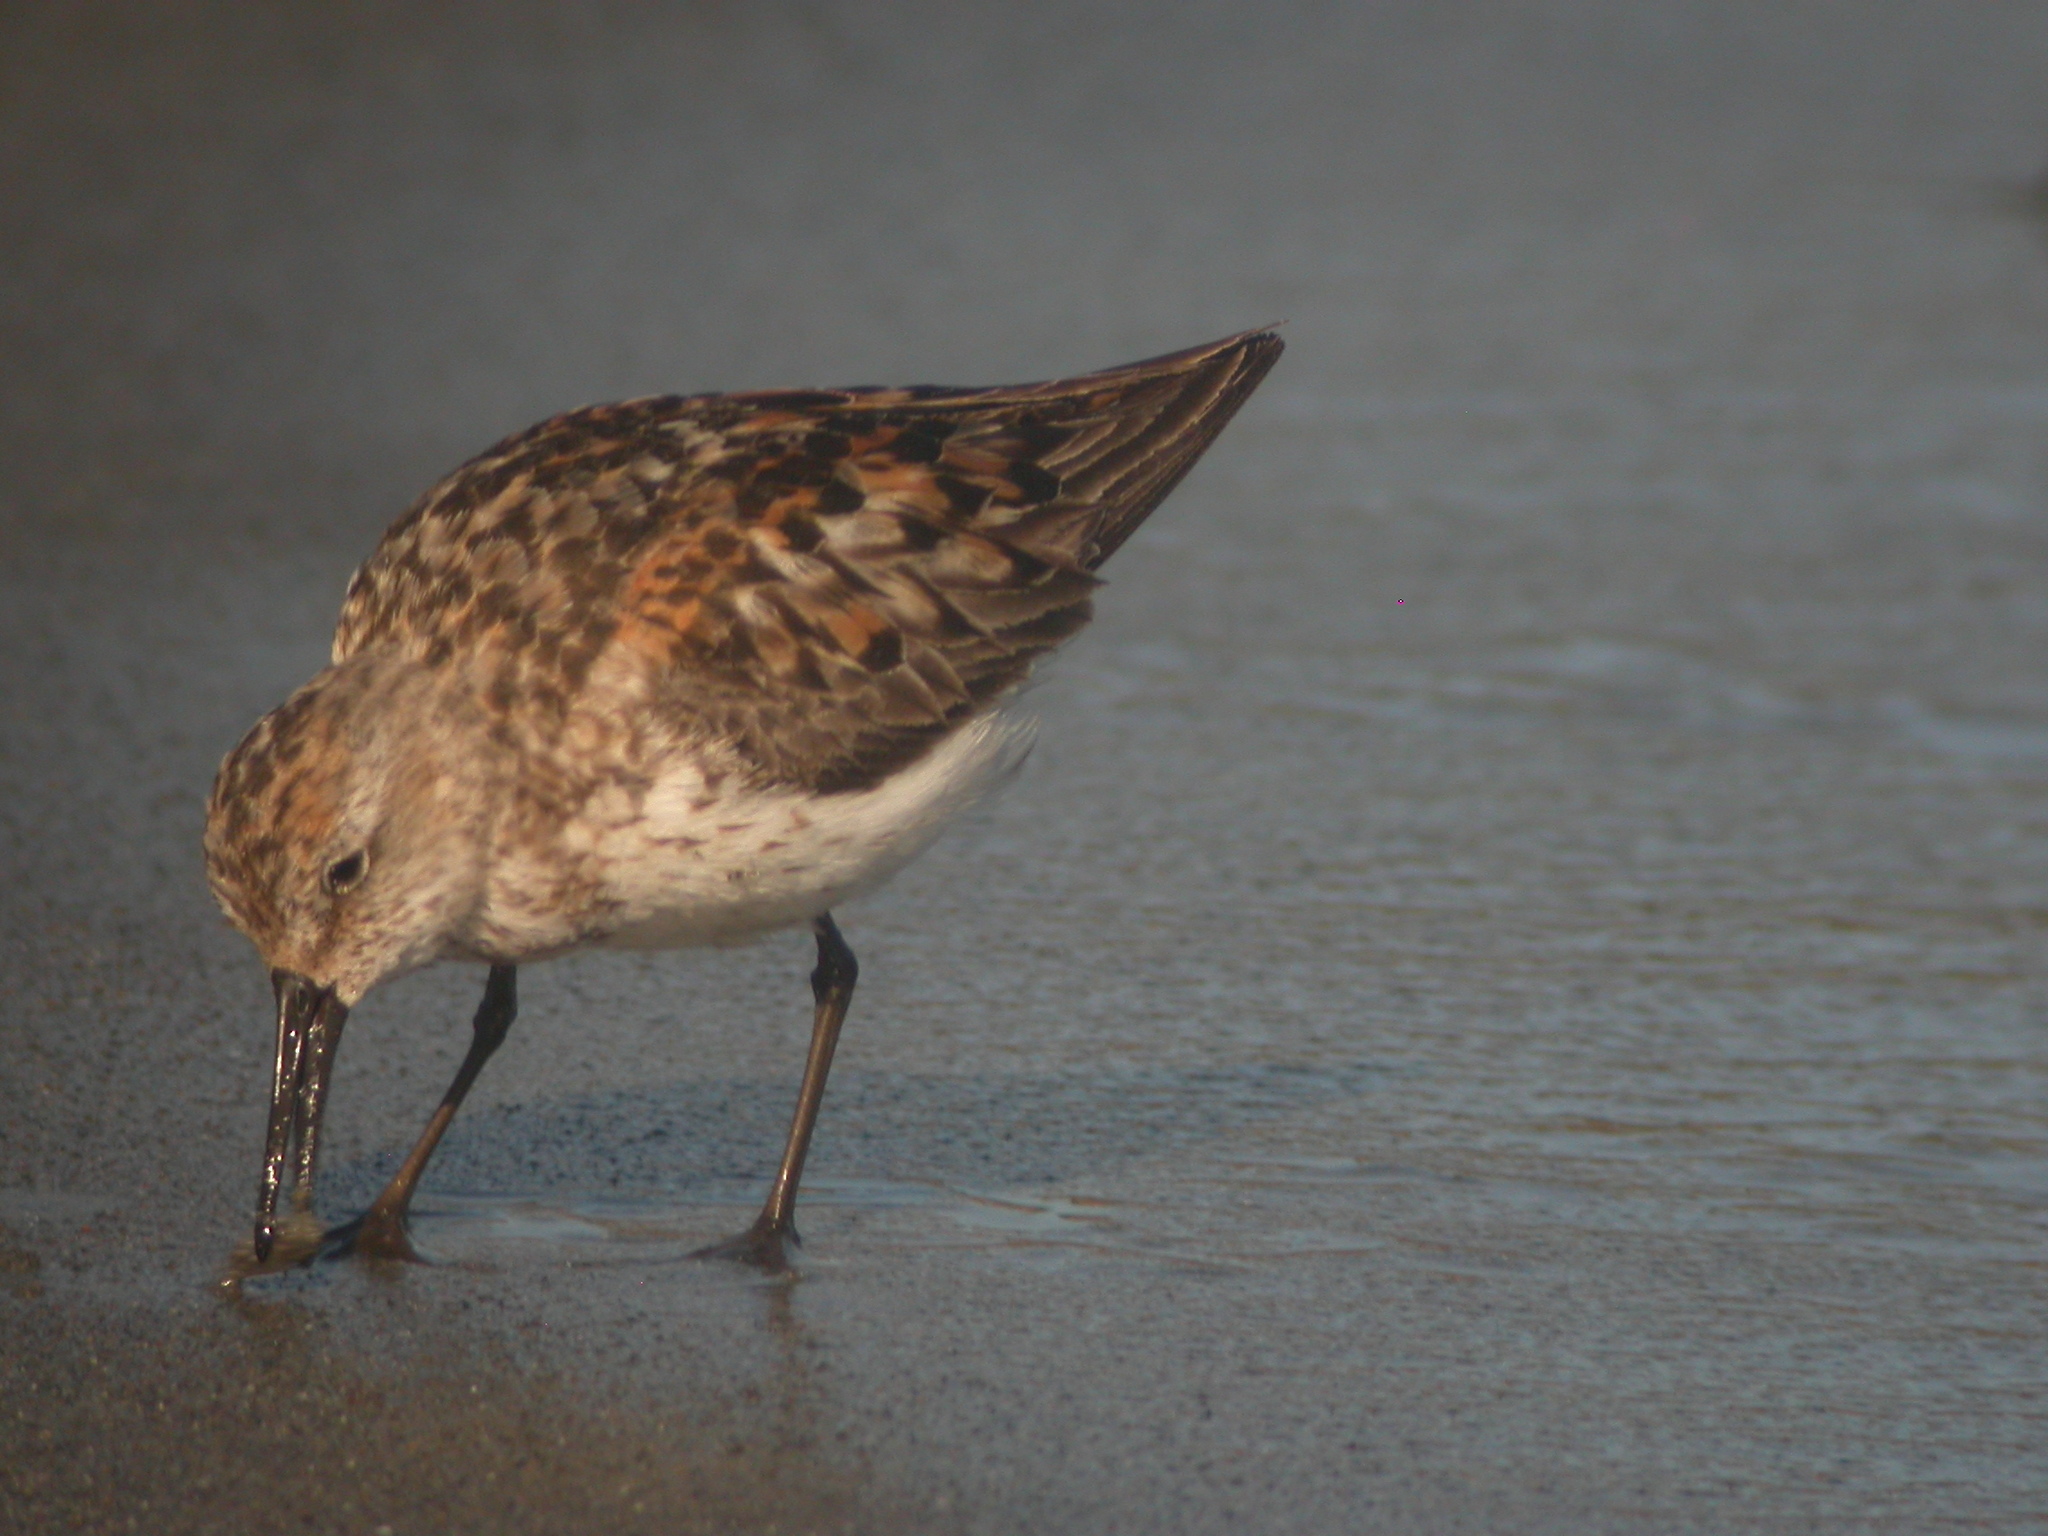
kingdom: Animalia
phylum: Chordata
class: Aves
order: Charadriiformes
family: Scolopacidae
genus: Calidris
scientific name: Calidris mauri
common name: Western sandpiper
